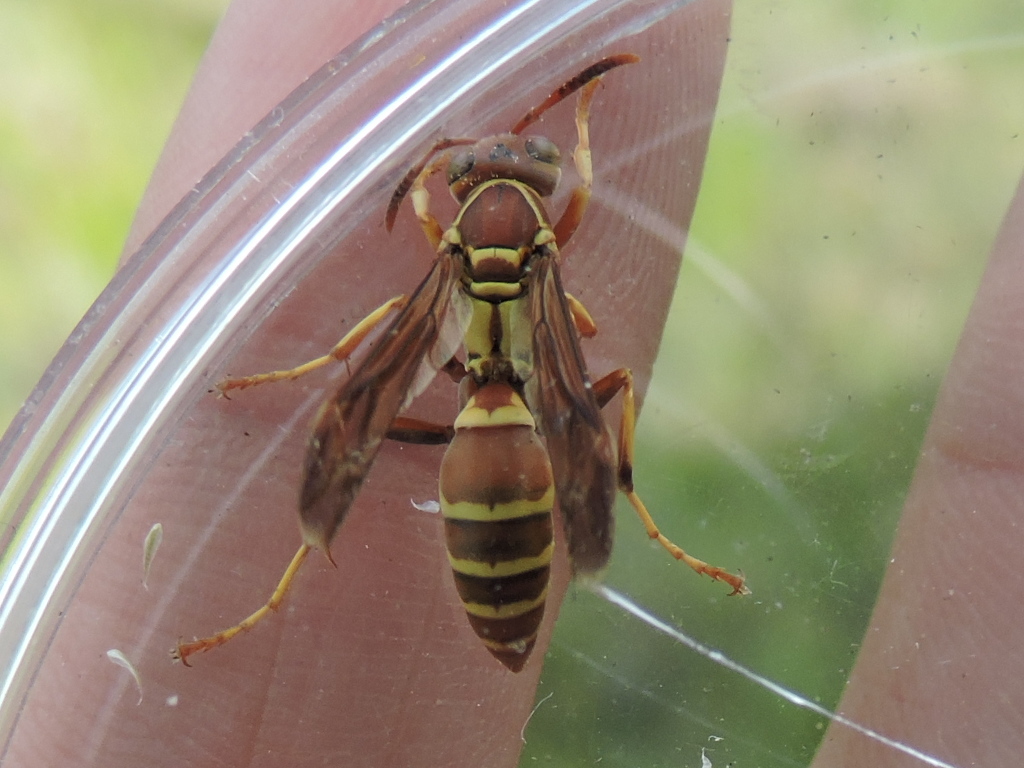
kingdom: Animalia
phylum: Arthropoda
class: Insecta
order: Hymenoptera
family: Eumenidae
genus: Polistes
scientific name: Polistes dorsalis
